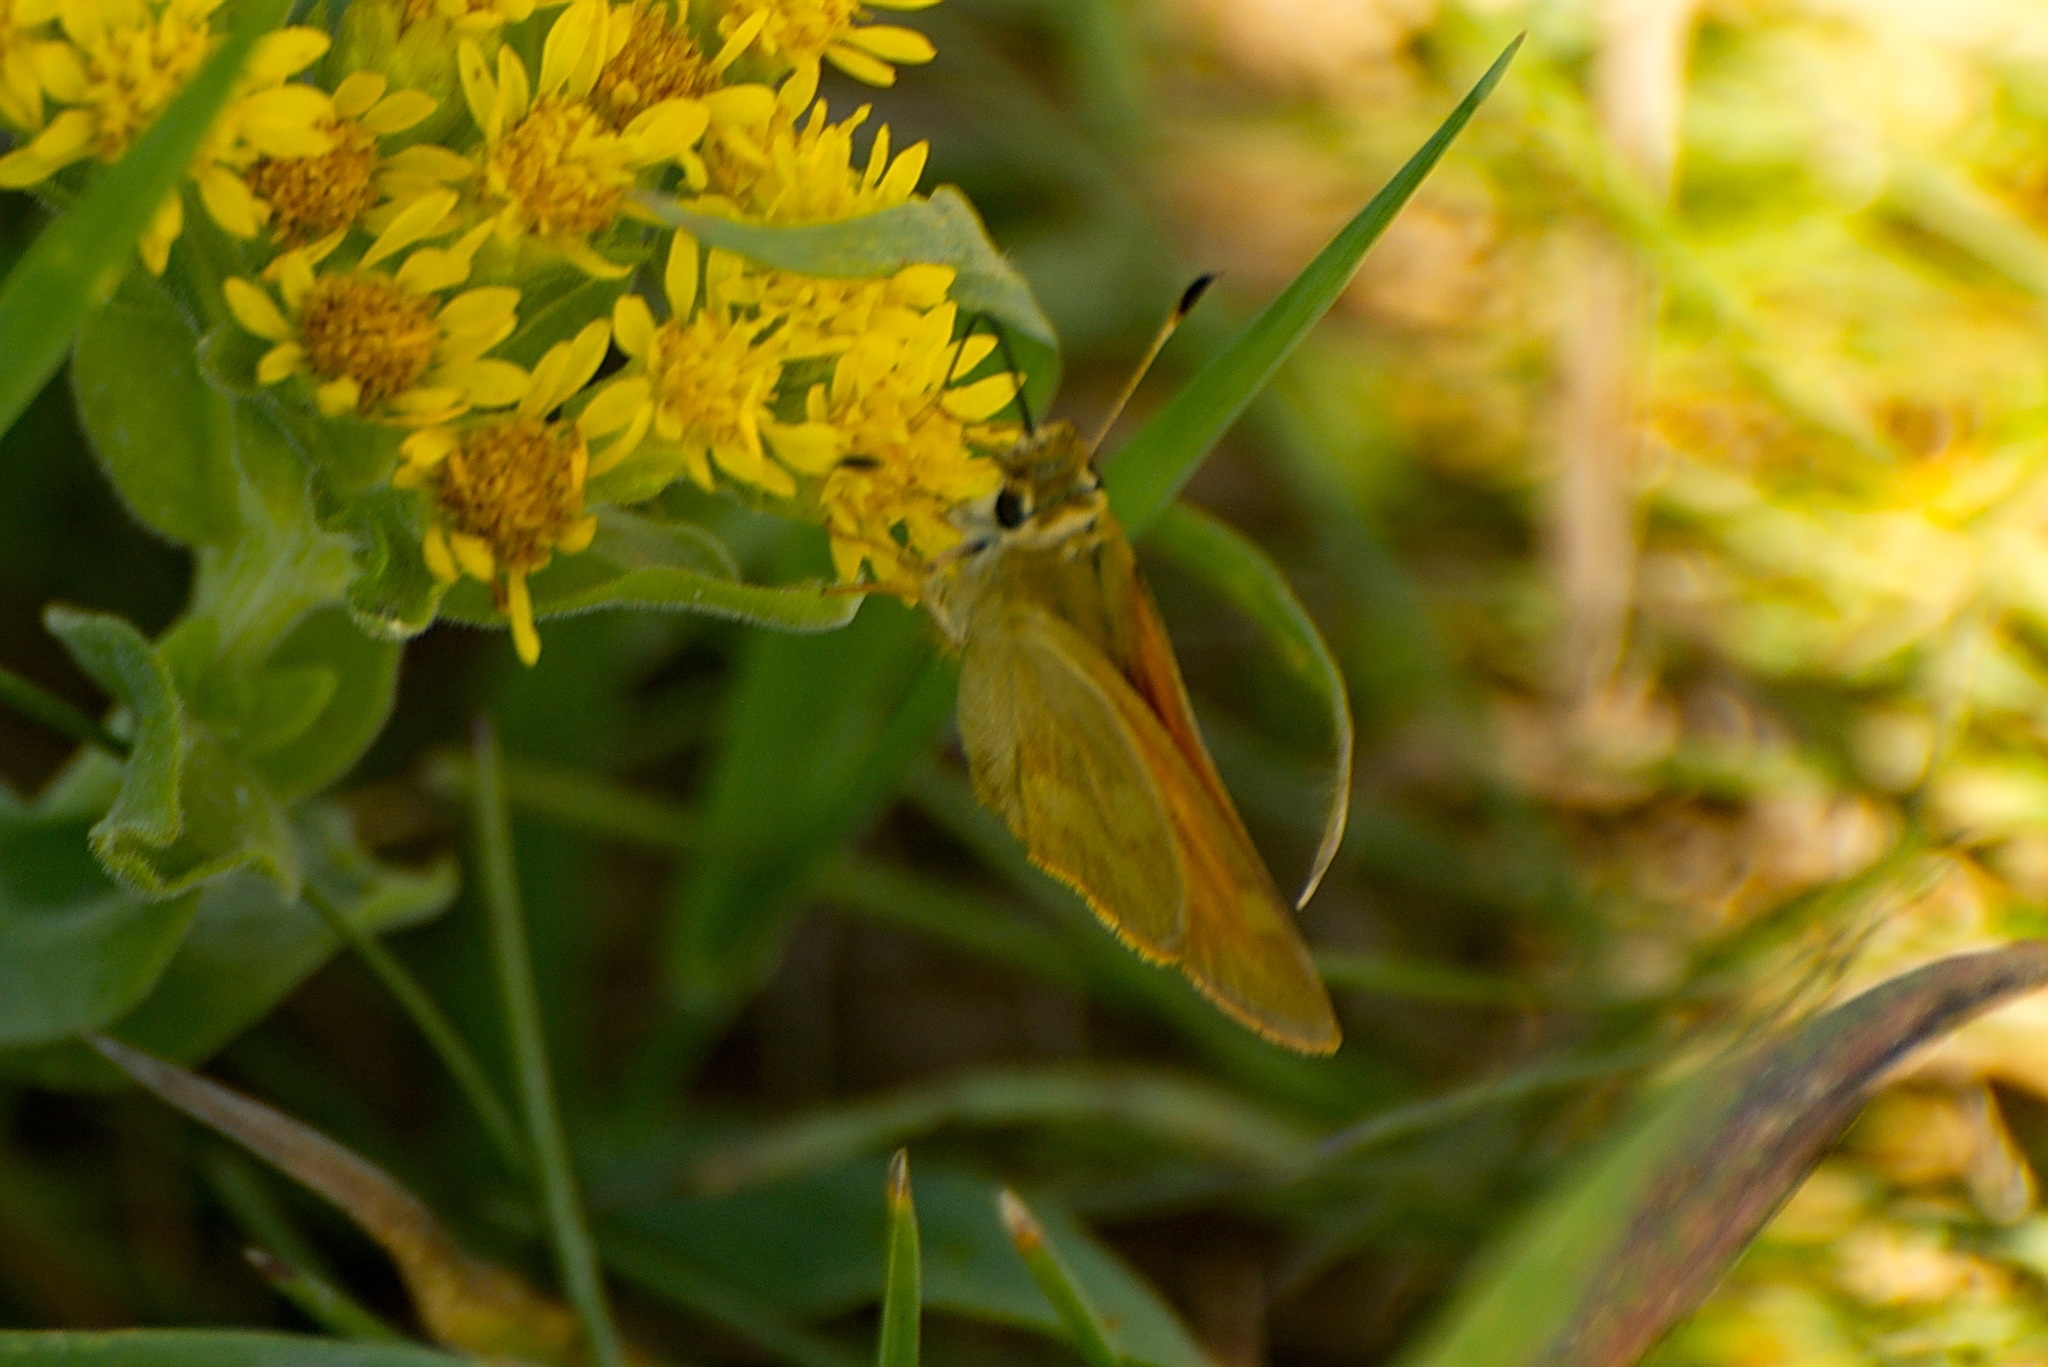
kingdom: Animalia
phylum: Arthropoda
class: Insecta
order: Lepidoptera
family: Hesperiidae
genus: Ochlodes
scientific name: Ochlodes sylvanoides
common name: Woodland skipper
